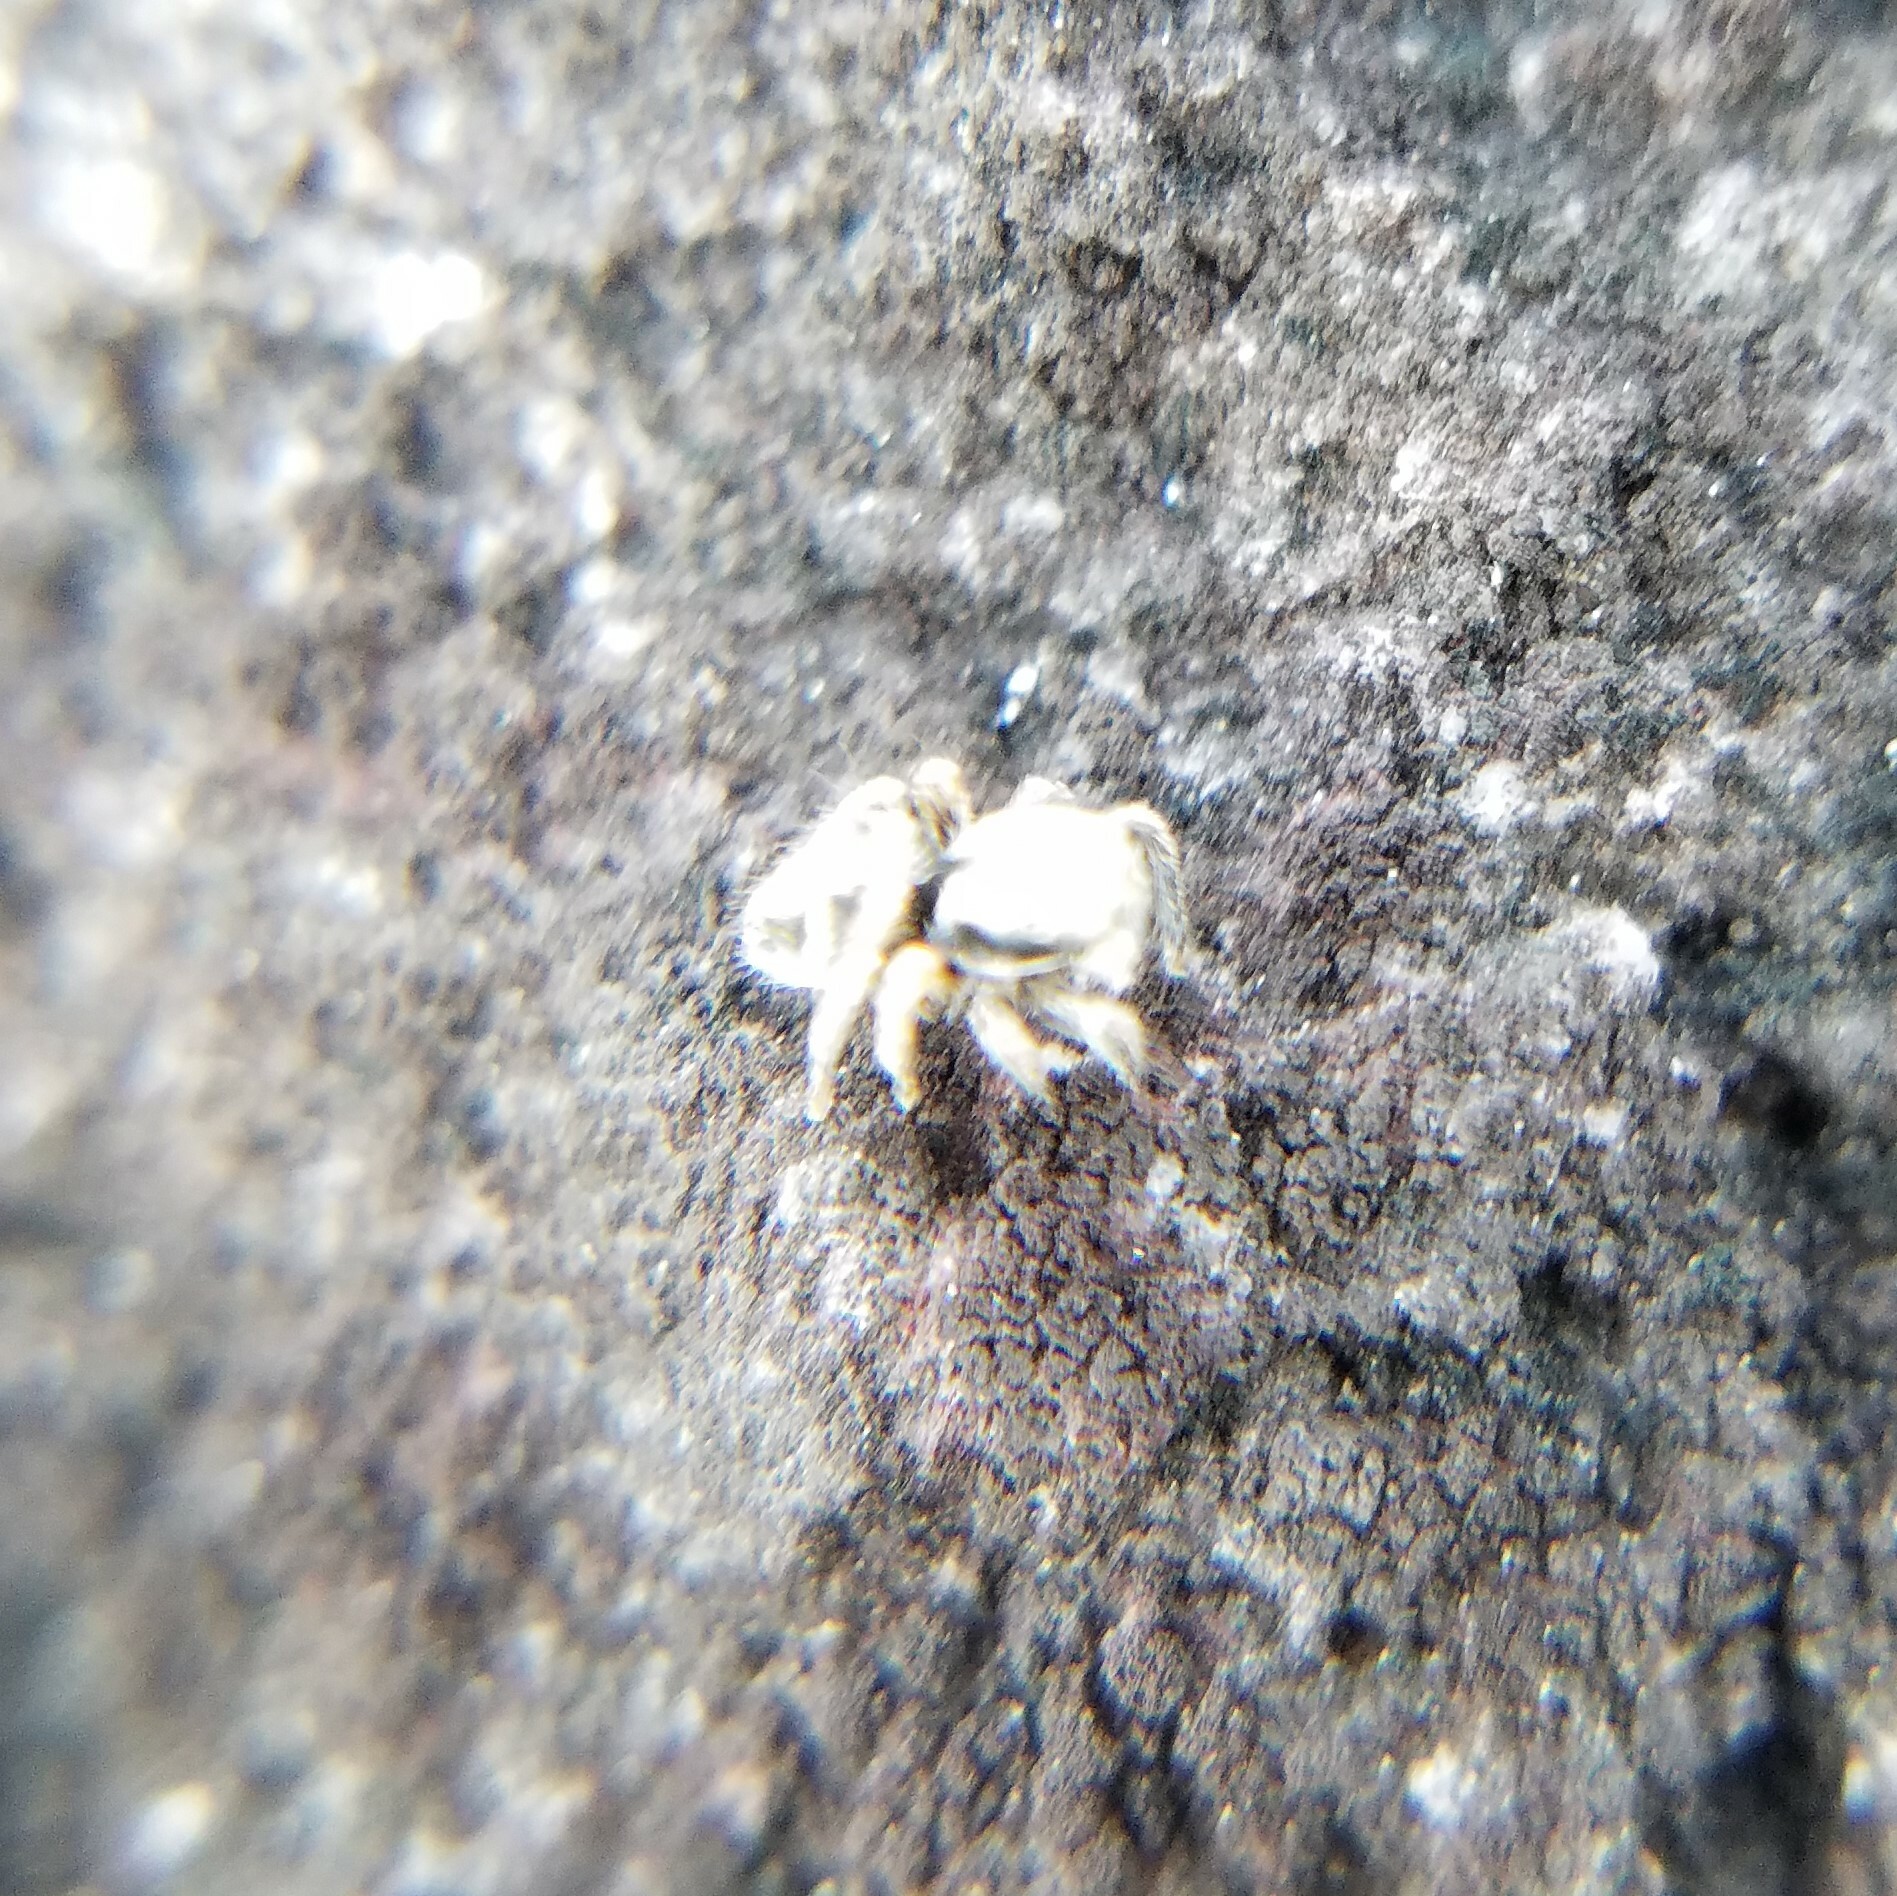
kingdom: Animalia
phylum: Arthropoda
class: Arachnida
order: Araneae
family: Salticidae
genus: Habronattus
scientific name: Habronattus coecatus
